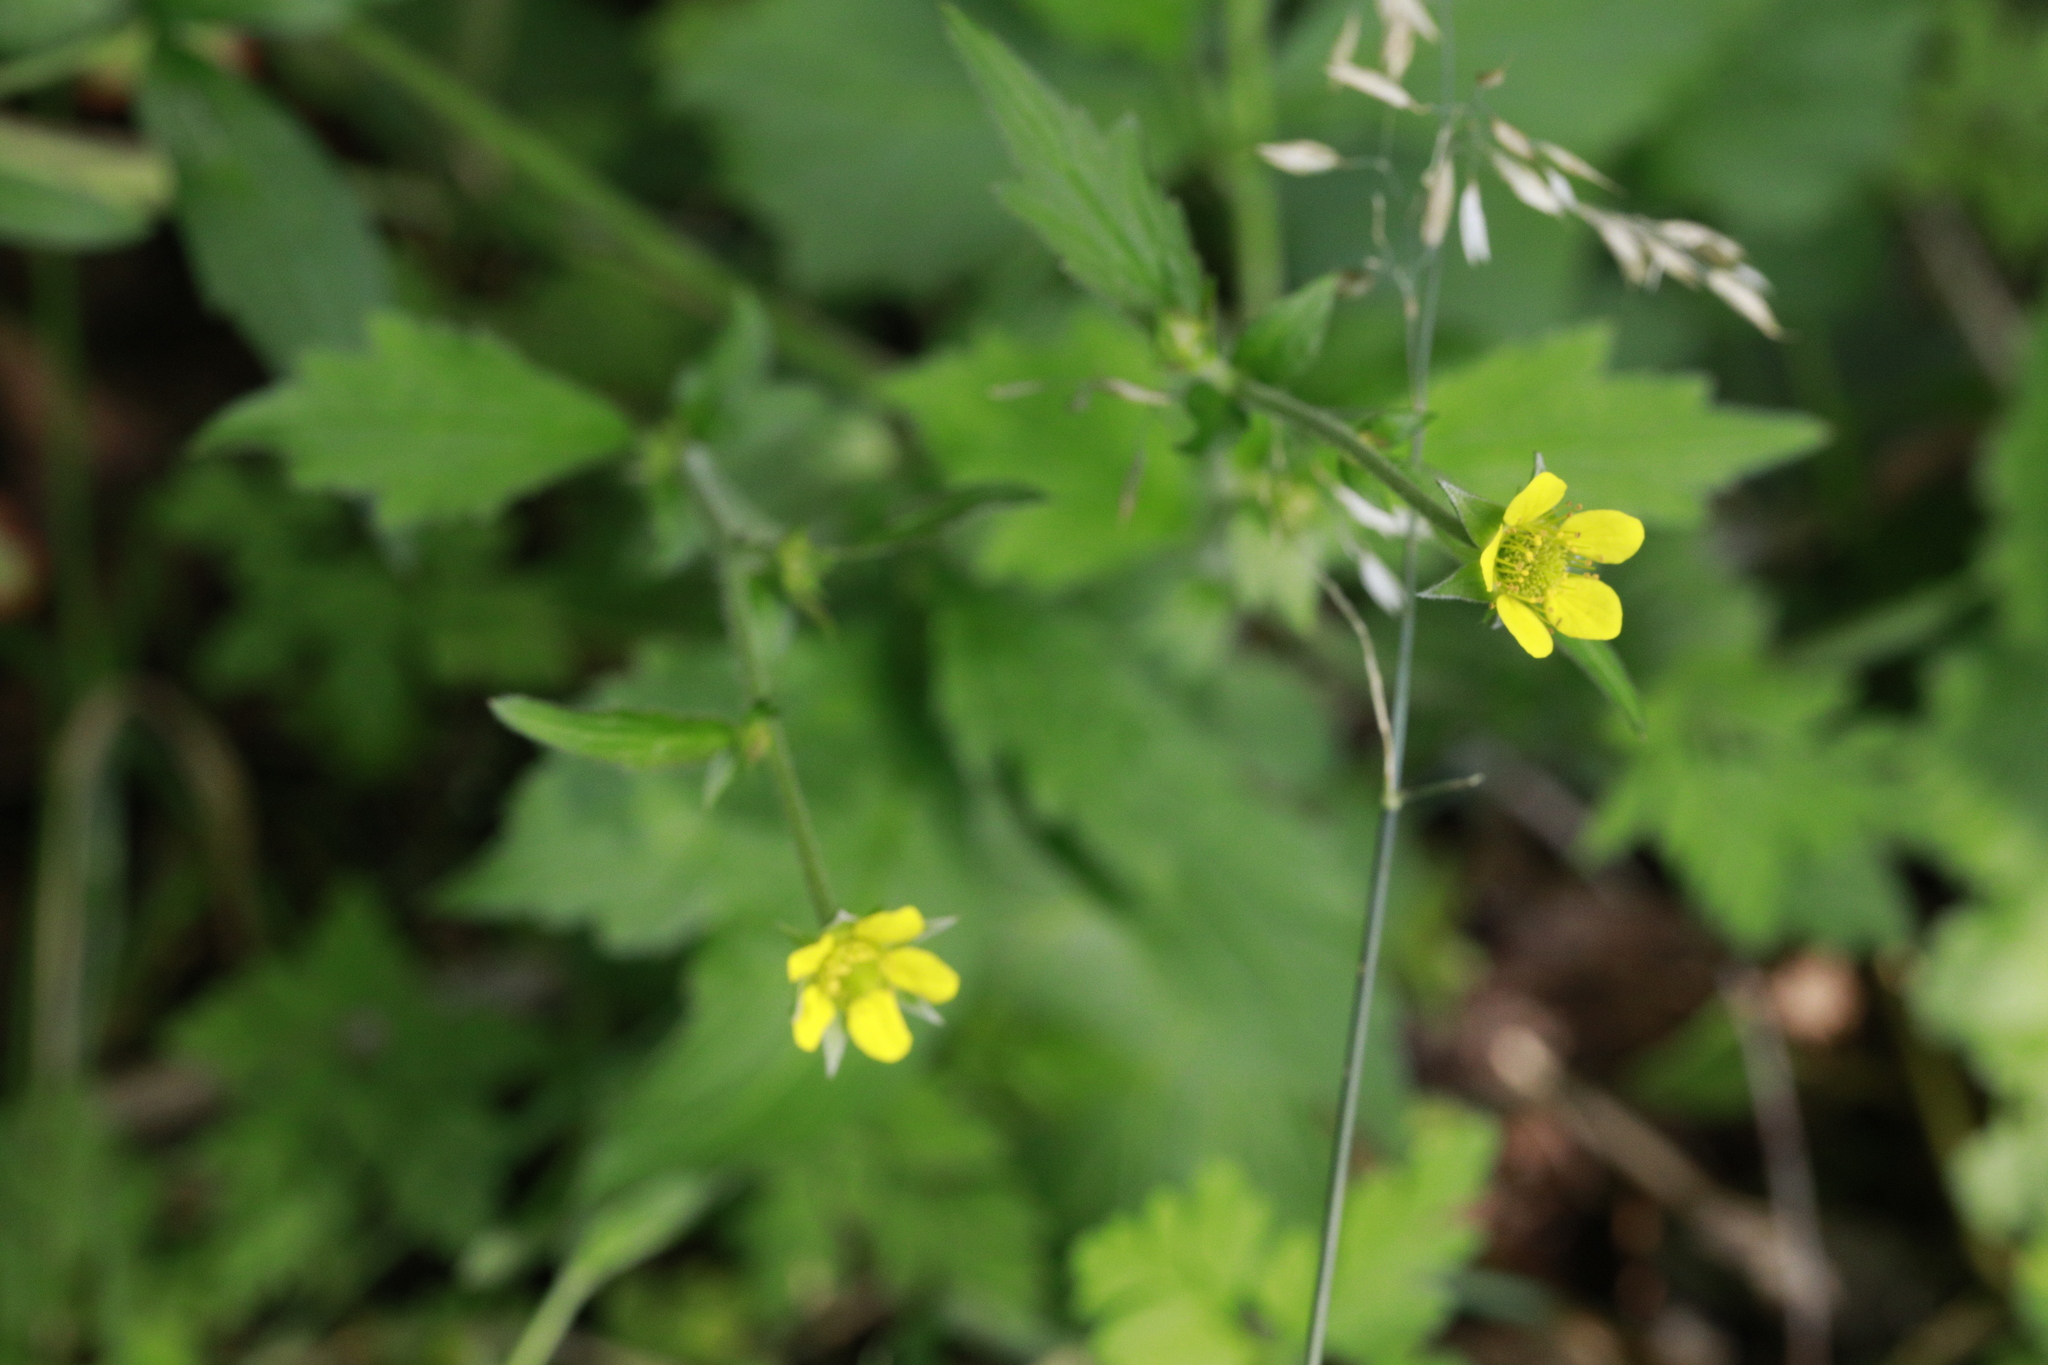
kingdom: Plantae
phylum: Tracheophyta
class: Magnoliopsida
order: Rosales
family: Rosaceae
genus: Geum
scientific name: Geum urbanum
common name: Wood avens
